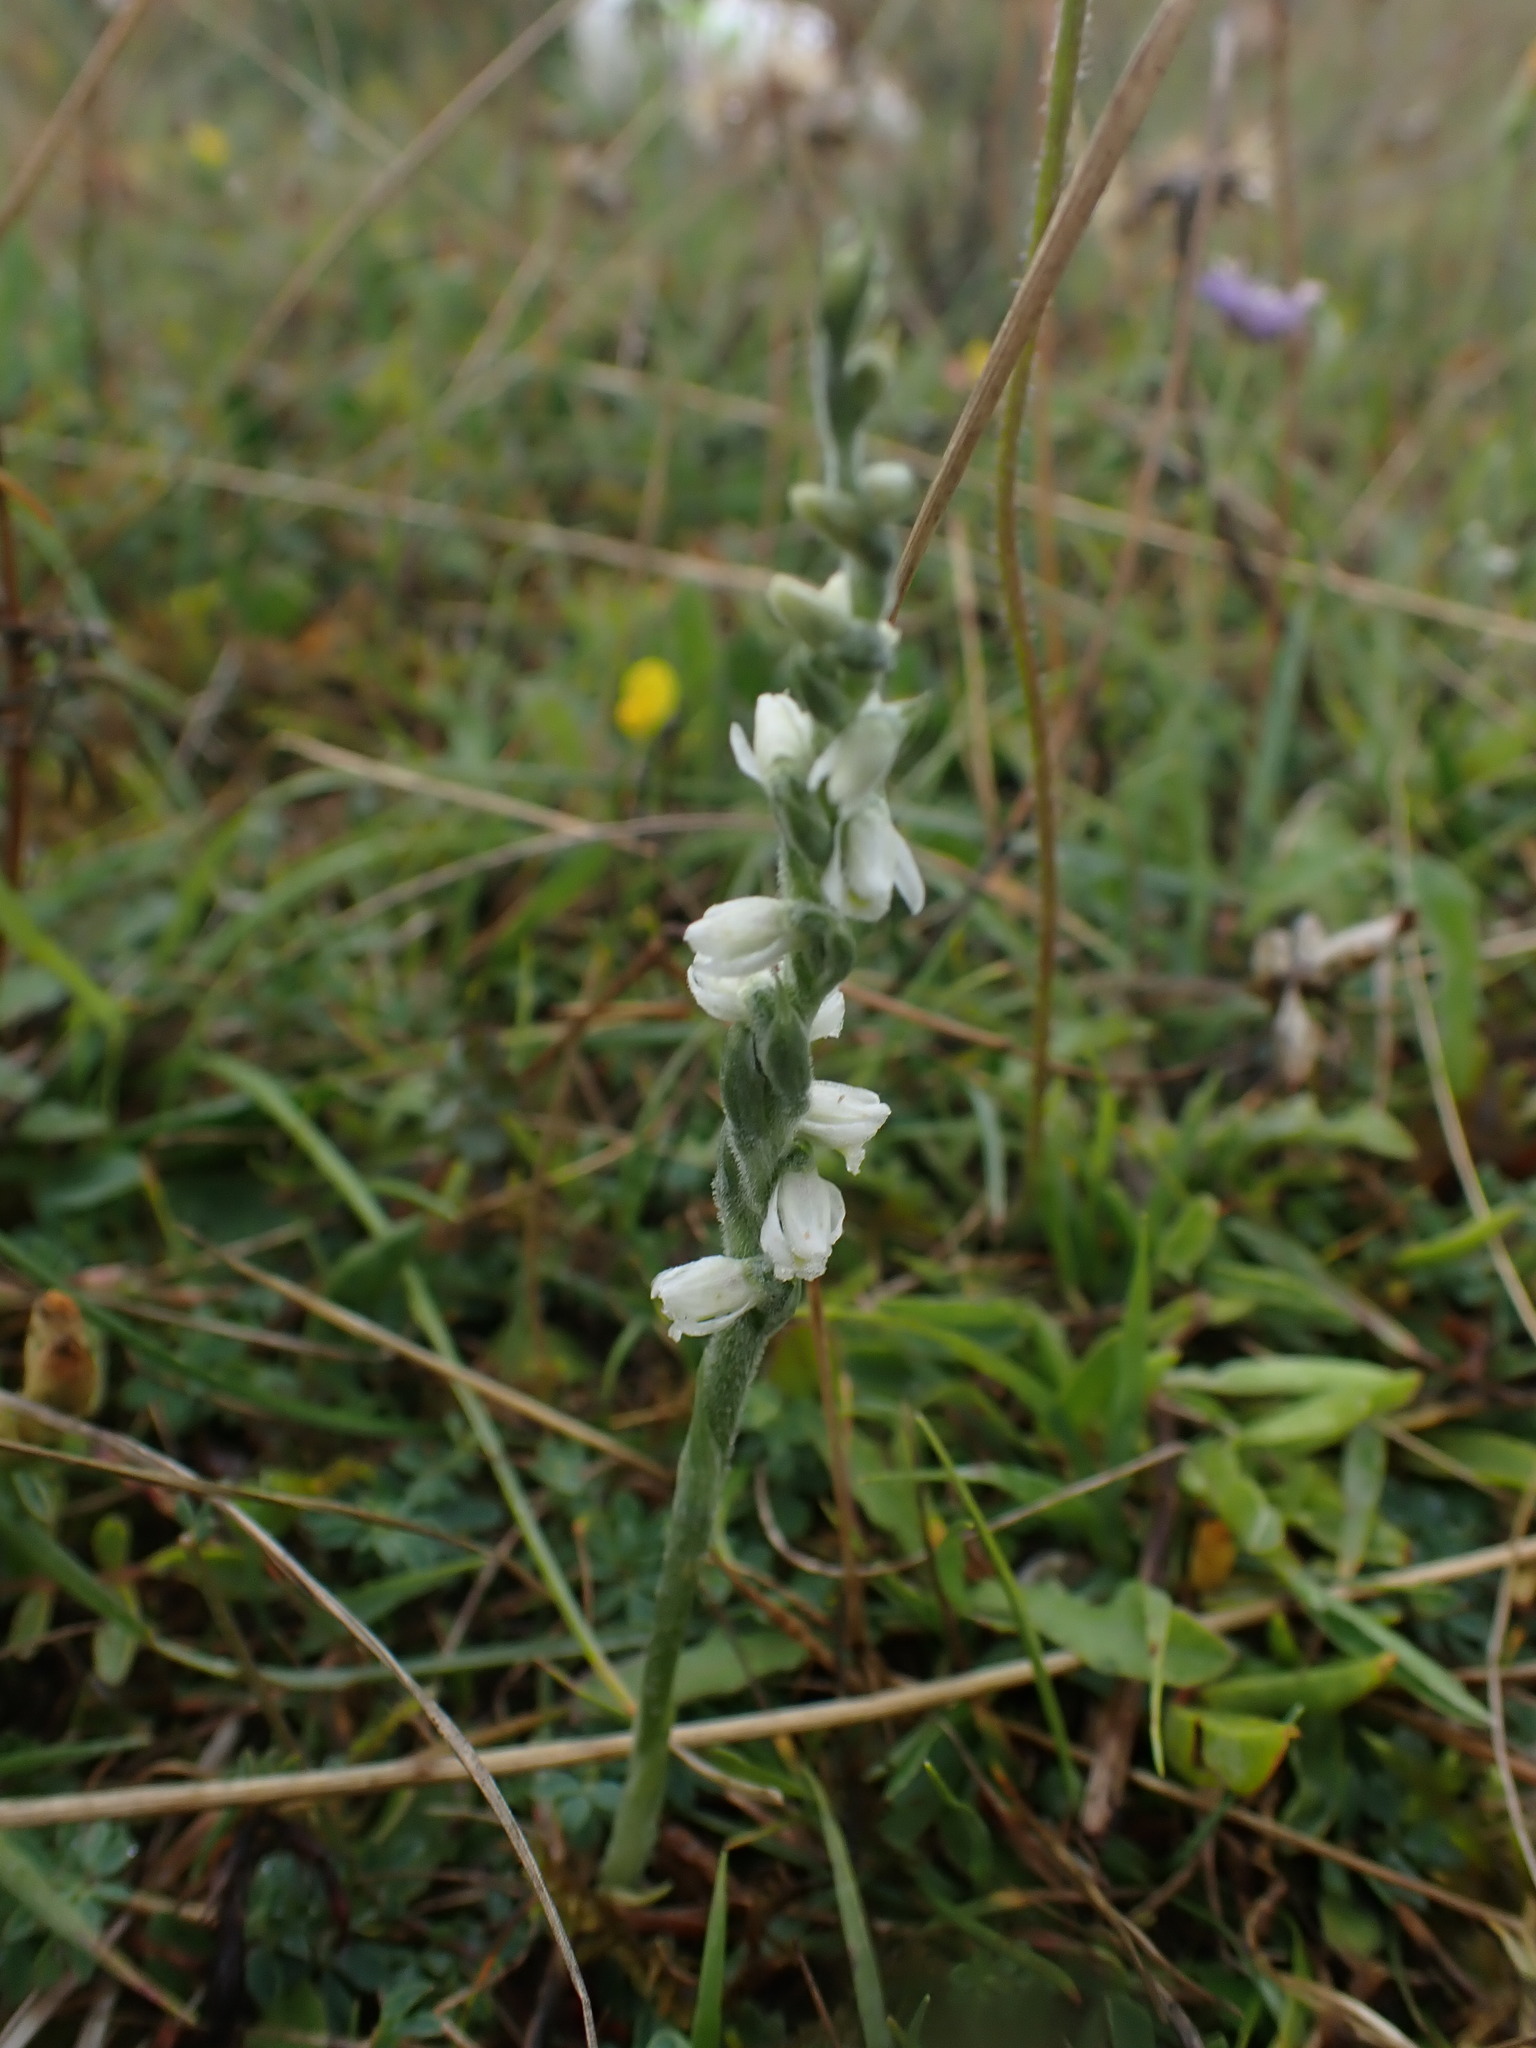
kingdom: Plantae
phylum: Tracheophyta
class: Liliopsida
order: Asparagales
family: Orchidaceae
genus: Spiranthes
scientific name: Spiranthes spiralis
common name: Autumn lady's-tresses
